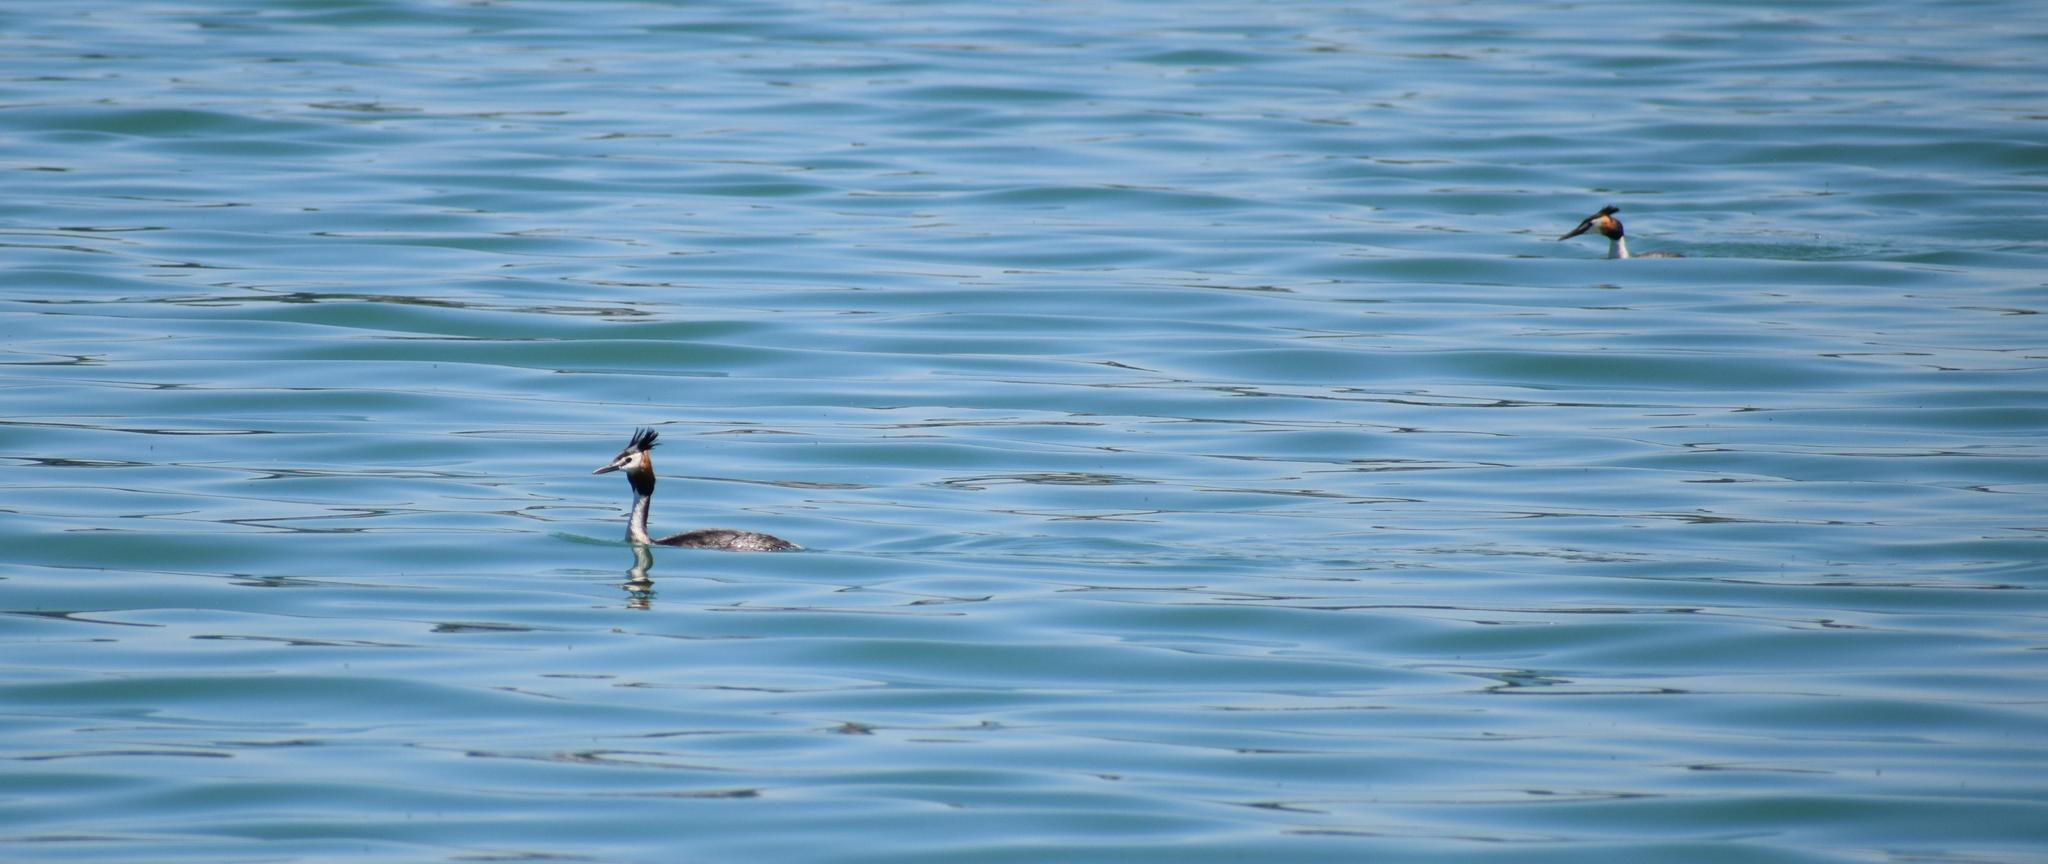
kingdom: Animalia
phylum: Chordata
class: Aves
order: Podicipediformes
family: Podicipedidae
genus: Podiceps
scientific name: Podiceps cristatus
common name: Great crested grebe
